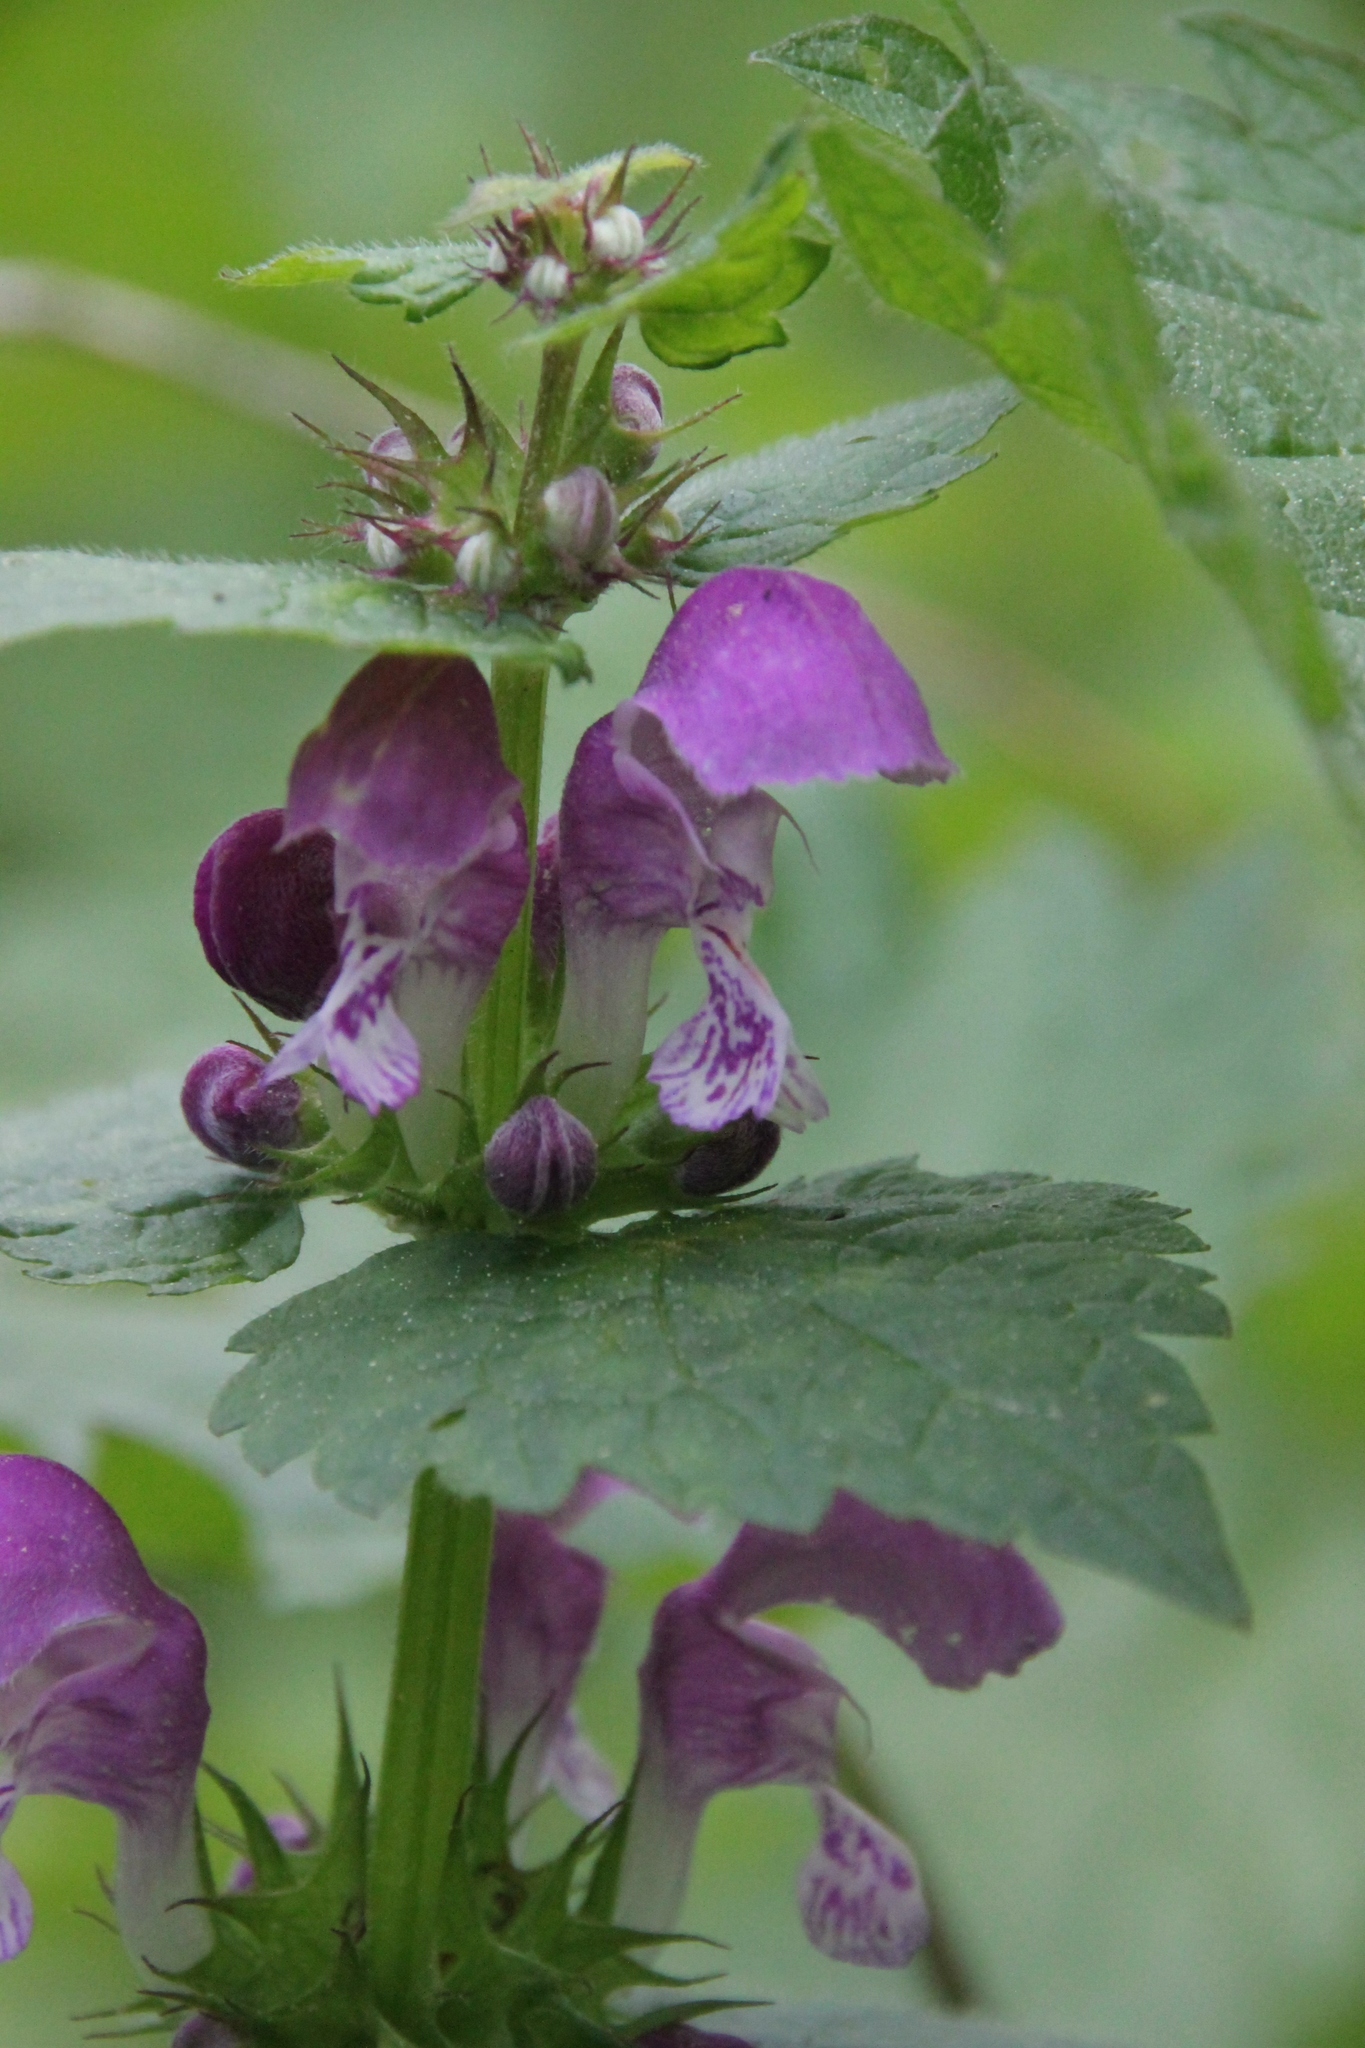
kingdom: Plantae
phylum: Tracheophyta
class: Magnoliopsida
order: Lamiales
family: Lamiaceae
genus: Lamium
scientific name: Lamium maculatum
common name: Spotted dead-nettle
